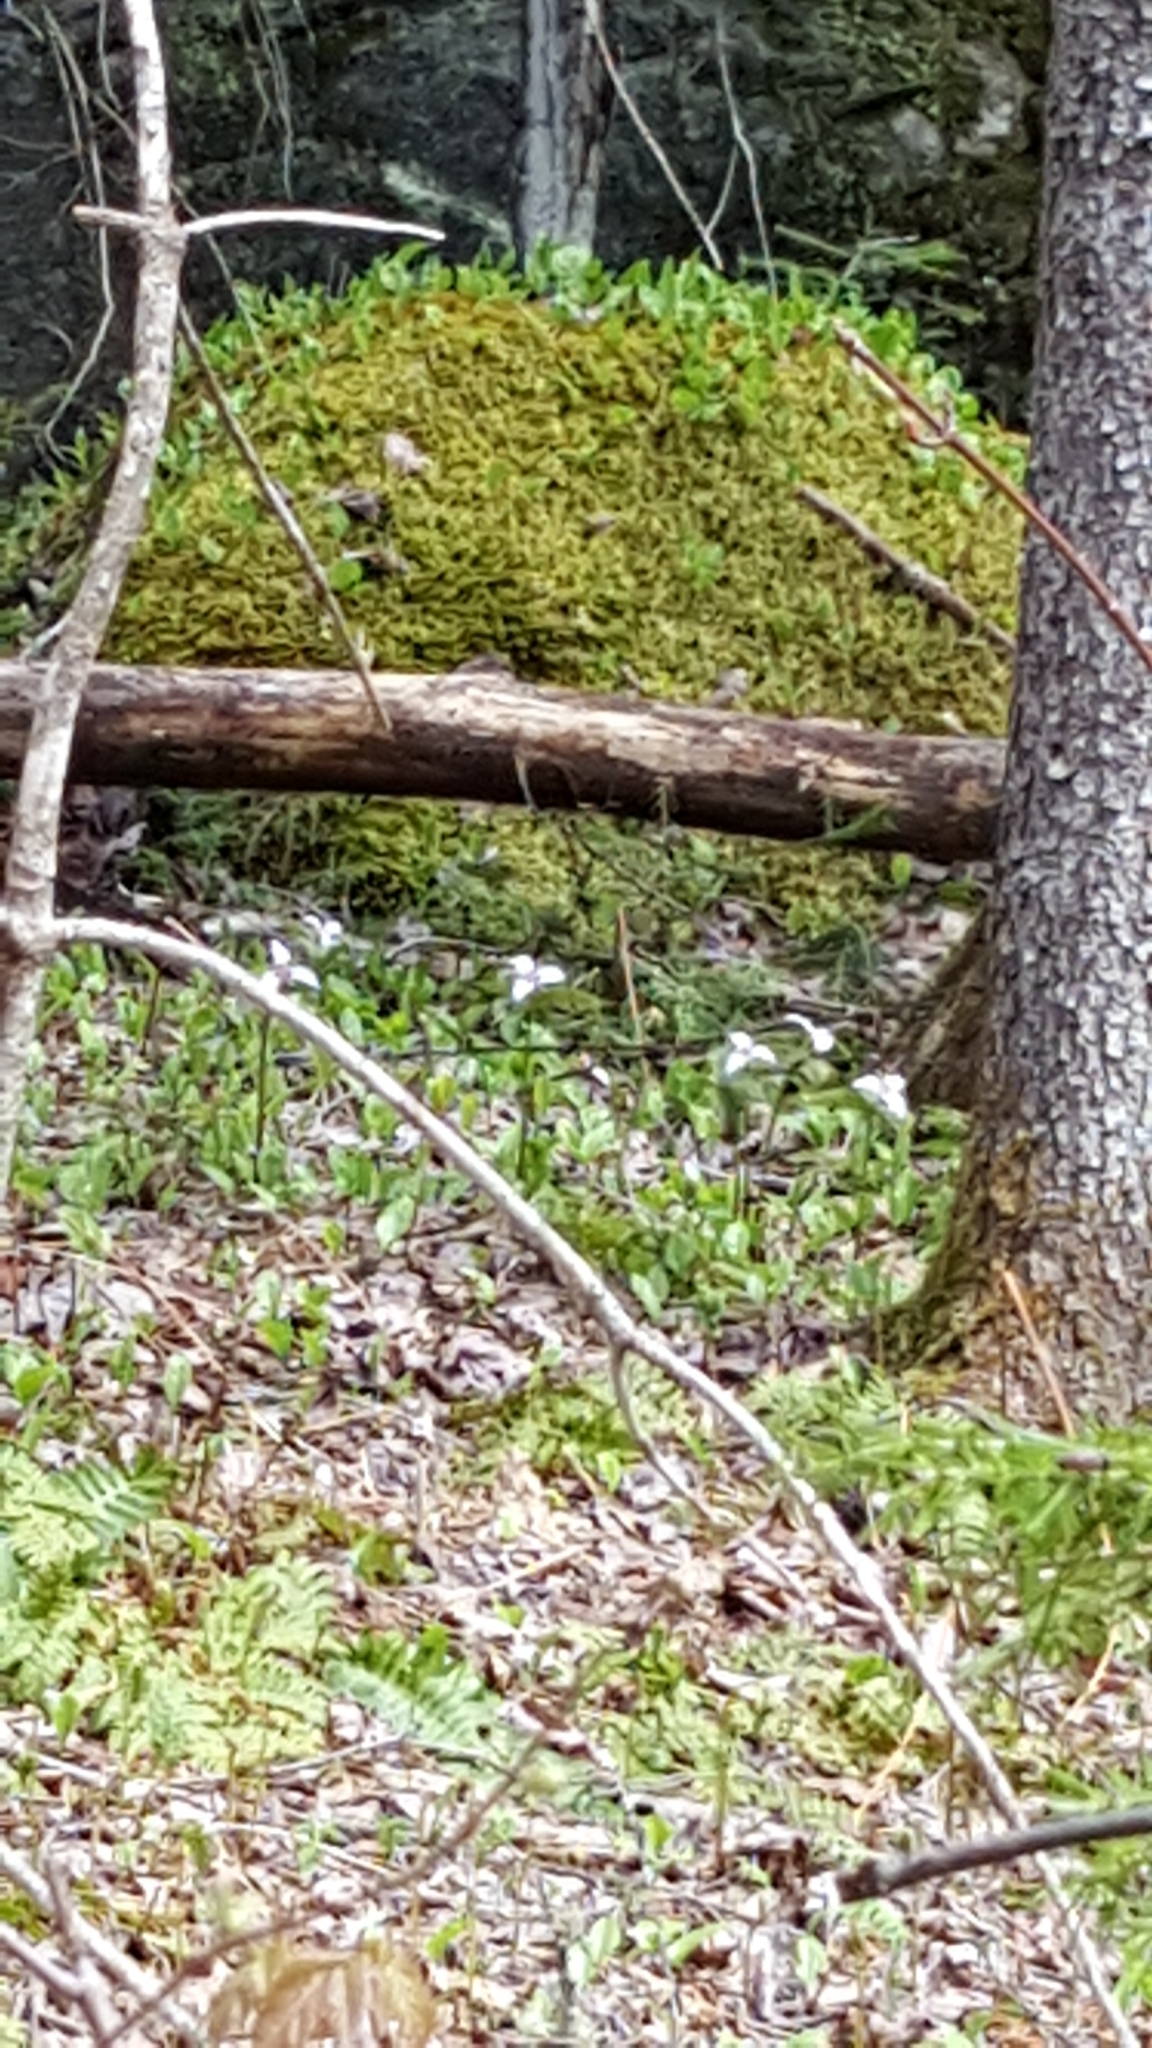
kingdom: Plantae
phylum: Tracheophyta
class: Liliopsida
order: Liliales
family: Melanthiaceae
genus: Trillium
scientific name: Trillium undulatum
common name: Paint trillium
